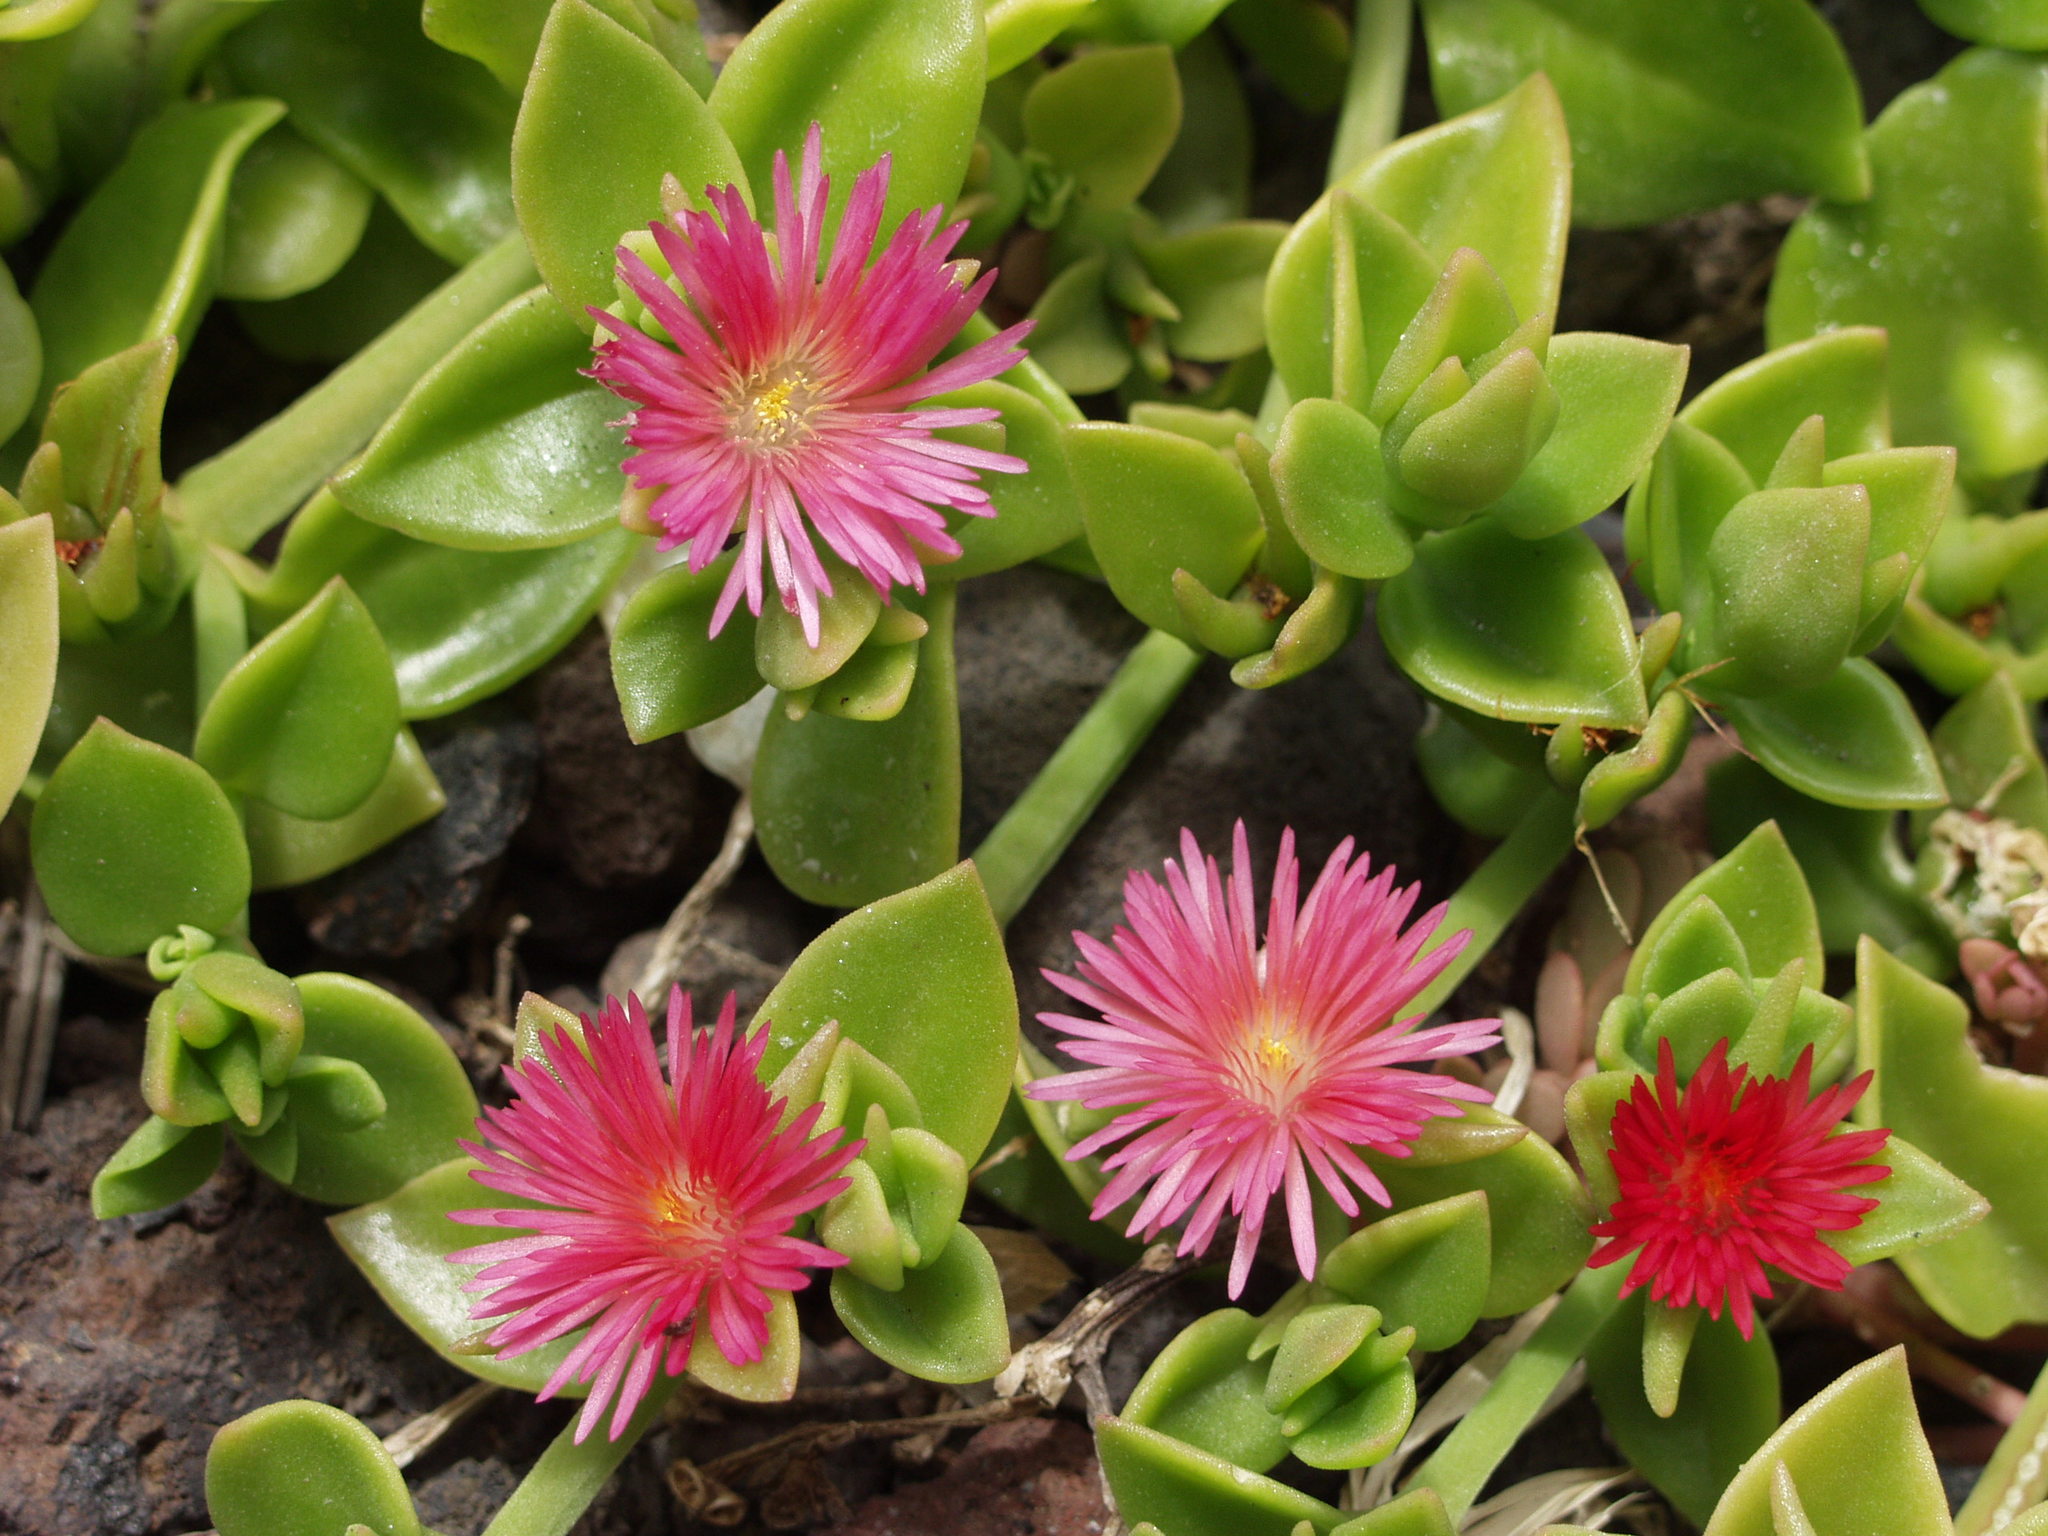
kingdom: Plantae
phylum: Tracheophyta
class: Magnoliopsida
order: Caryophyllales
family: Aizoaceae
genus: Mesembryanthemum
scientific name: Mesembryanthemum cordifolium
